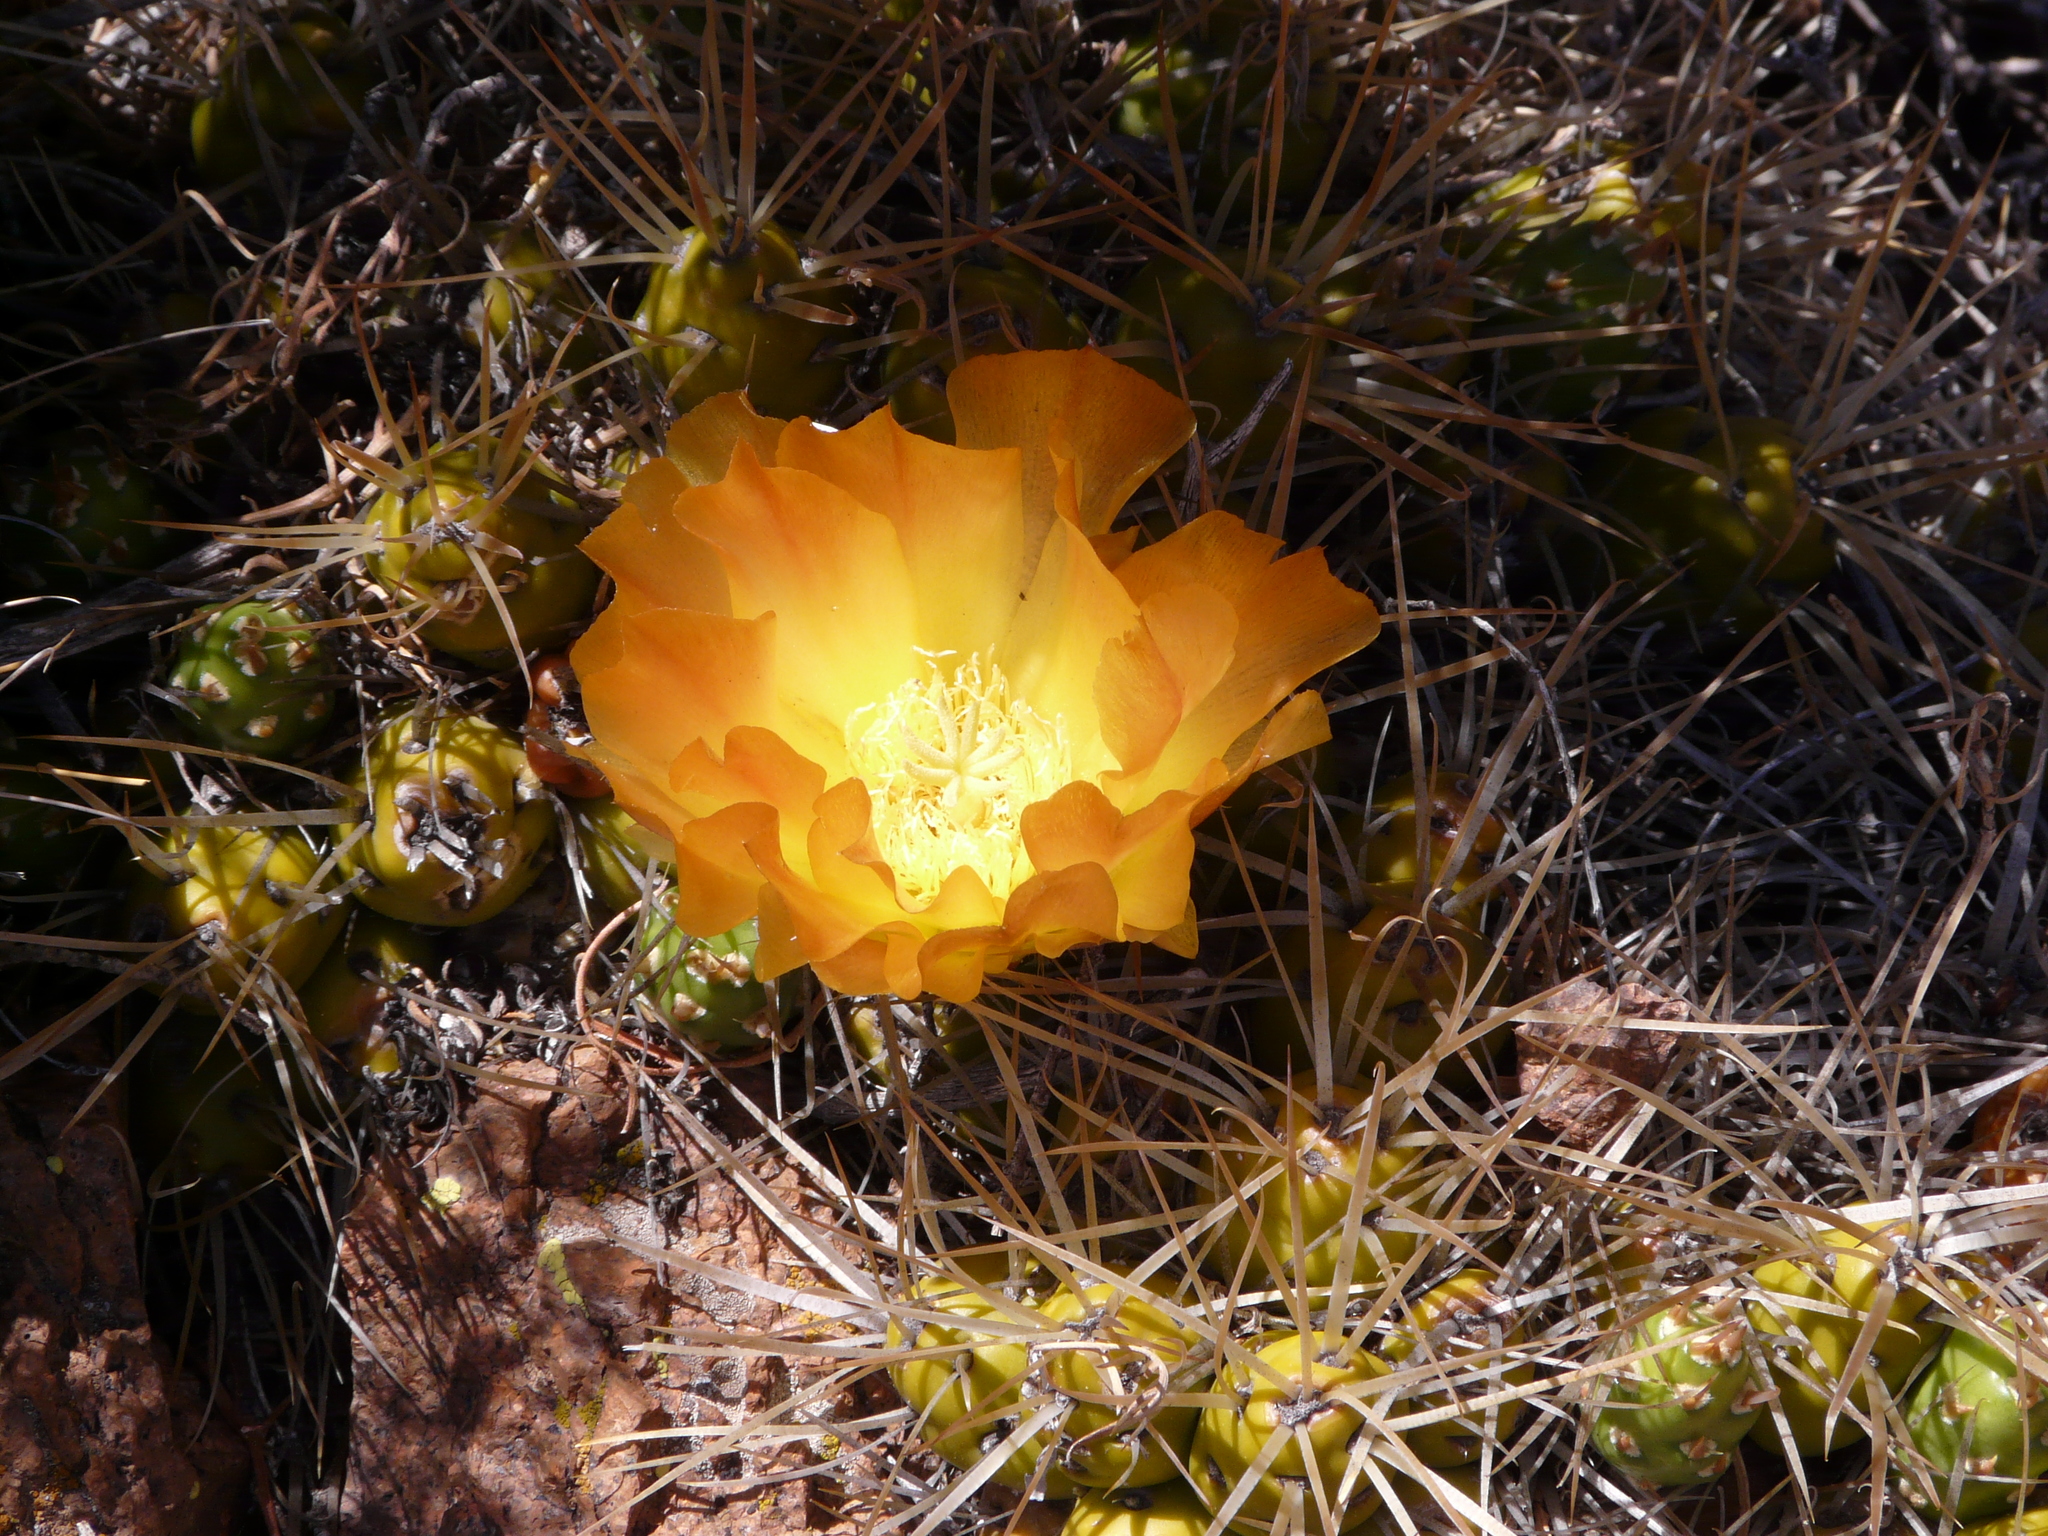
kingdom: Plantae
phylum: Tracheophyta
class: Magnoliopsida
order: Caryophyllales
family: Cactaceae
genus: Maihueniopsis
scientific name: Maihueniopsis platyacantha
